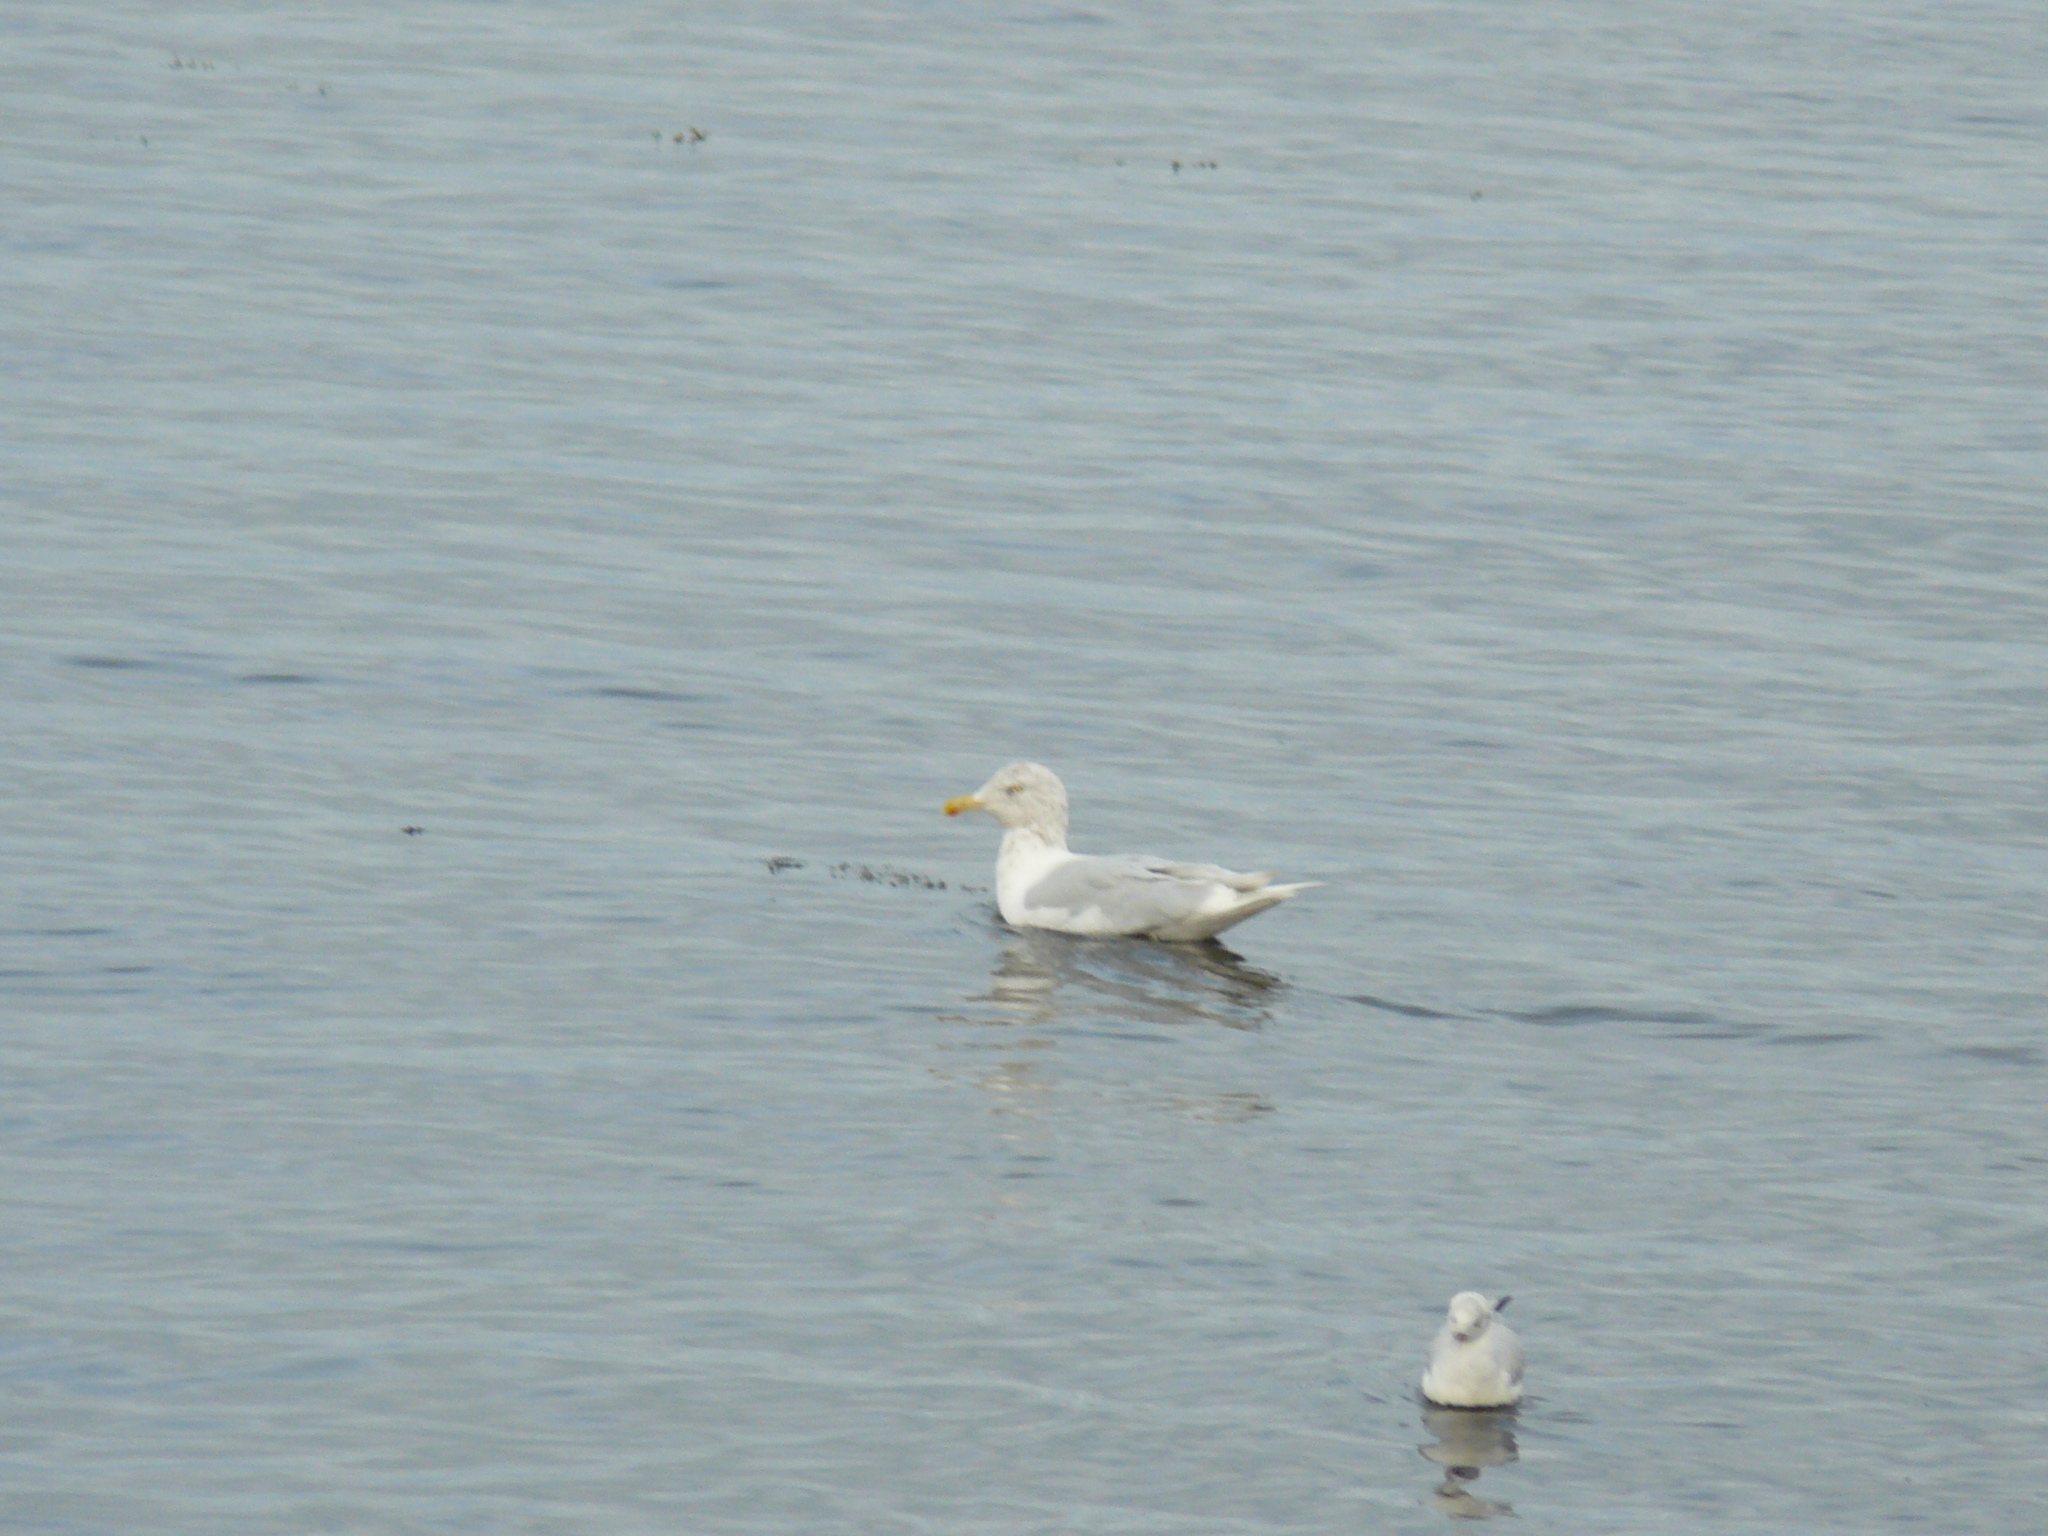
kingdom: Animalia
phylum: Chordata
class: Aves
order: Charadriiformes
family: Laridae
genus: Larus
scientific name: Larus glaucoides
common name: Iceland gull
